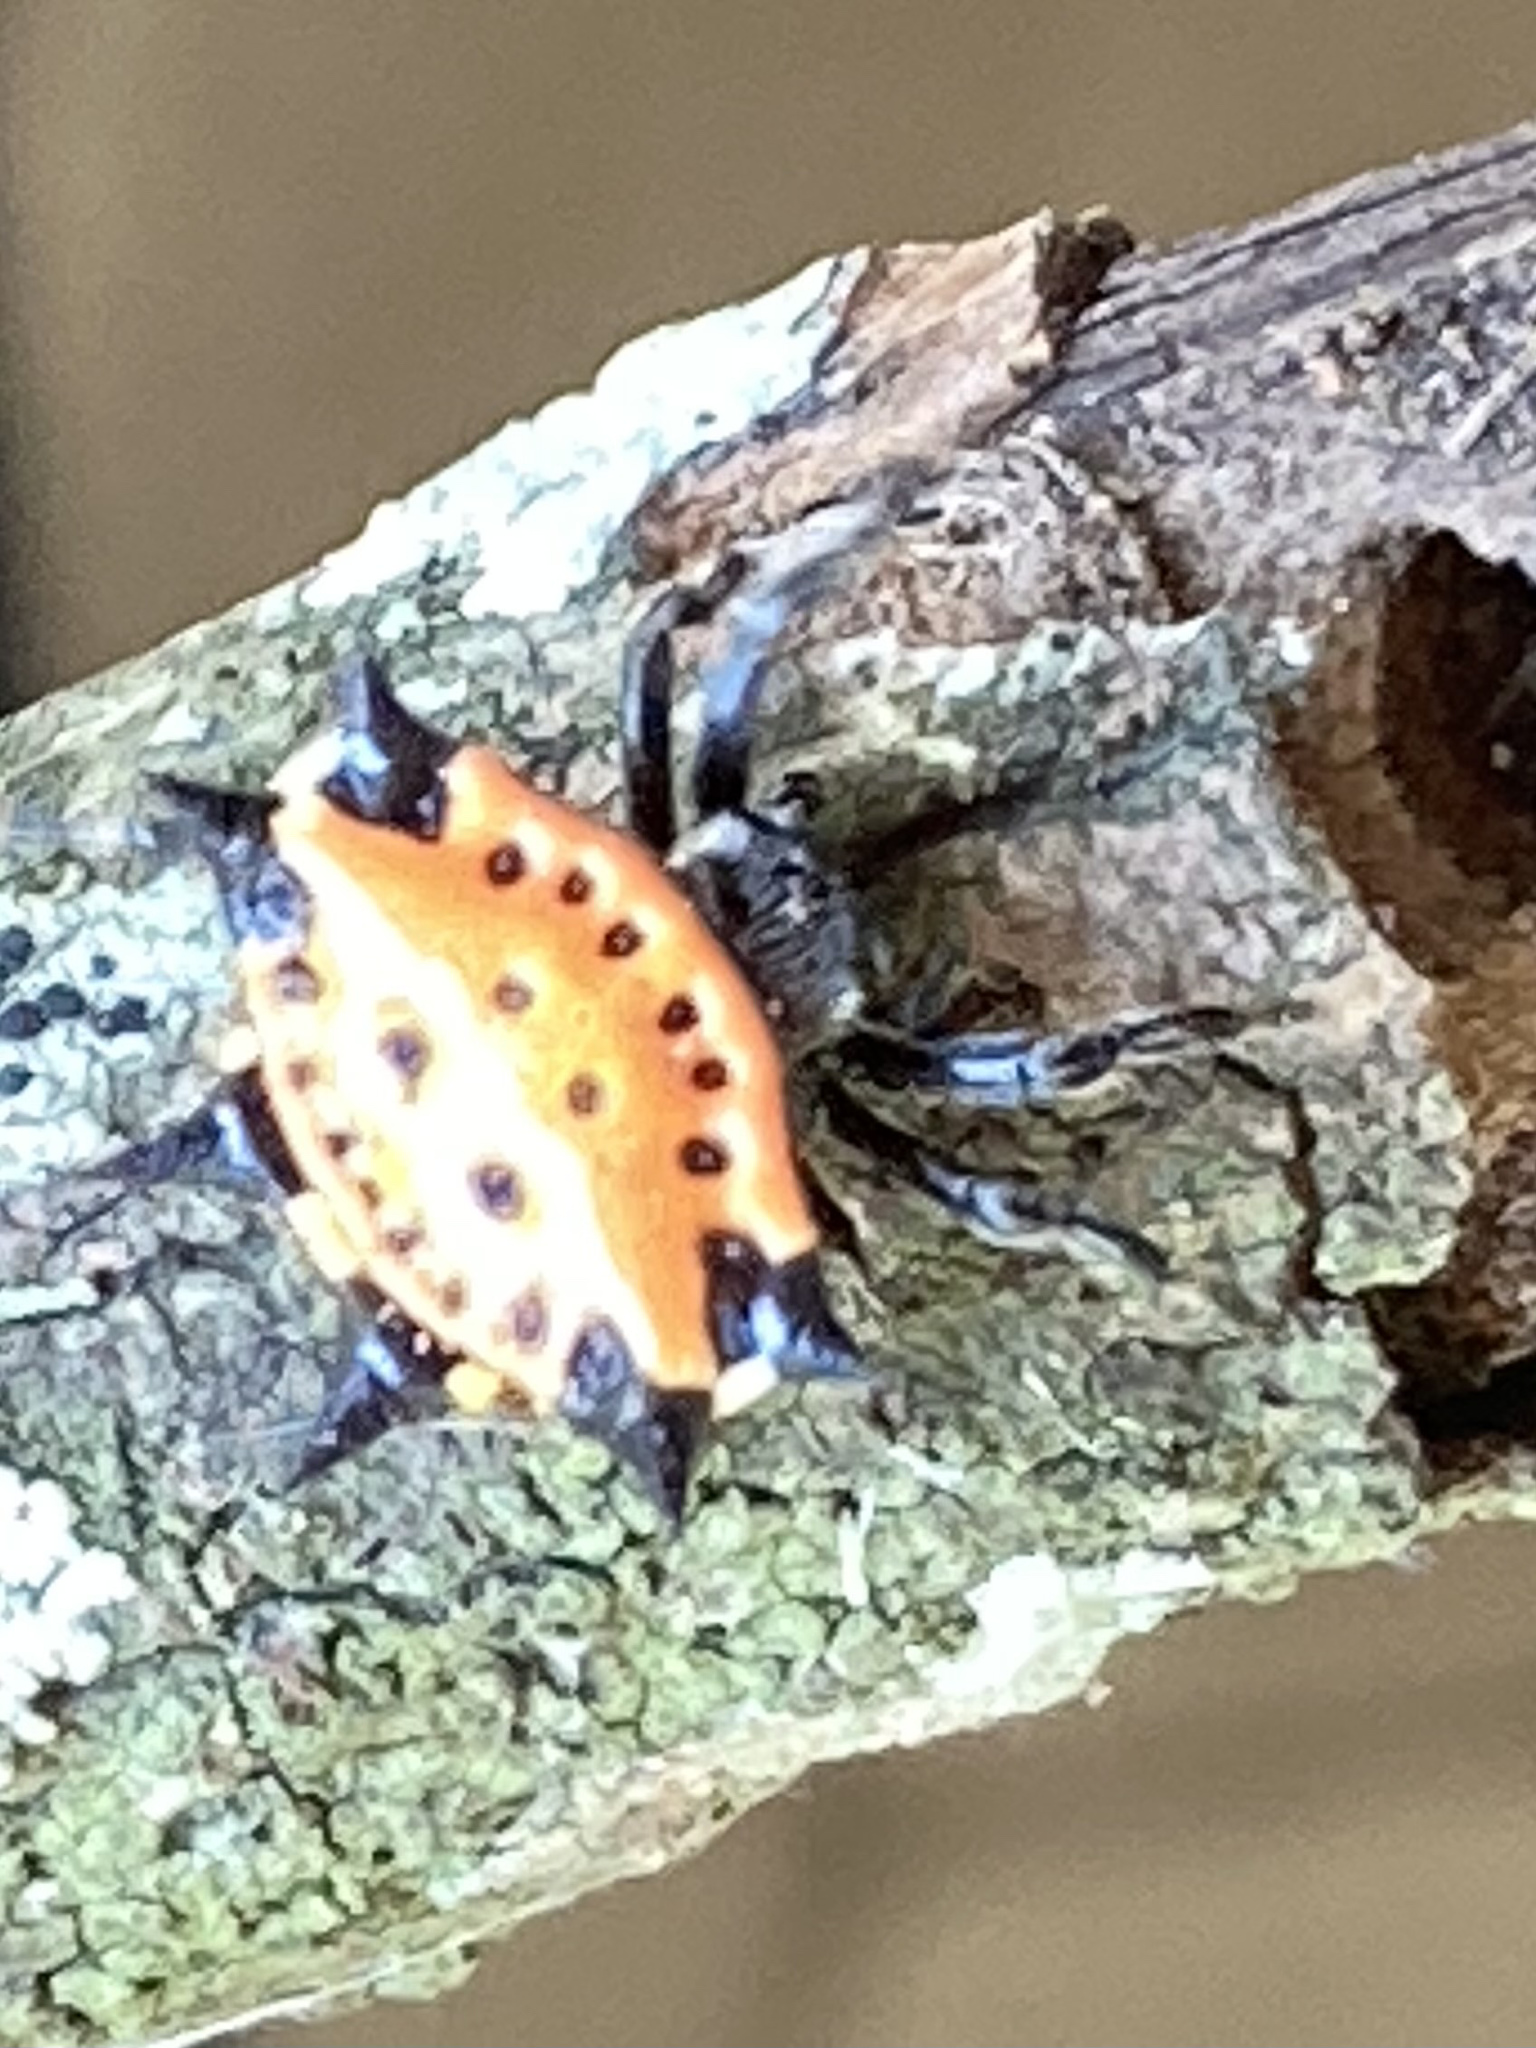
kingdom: Animalia
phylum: Arthropoda
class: Arachnida
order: Araneae
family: Araneidae
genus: Gasteracantha
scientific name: Gasteracantha cancriformis
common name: Orb weavers
